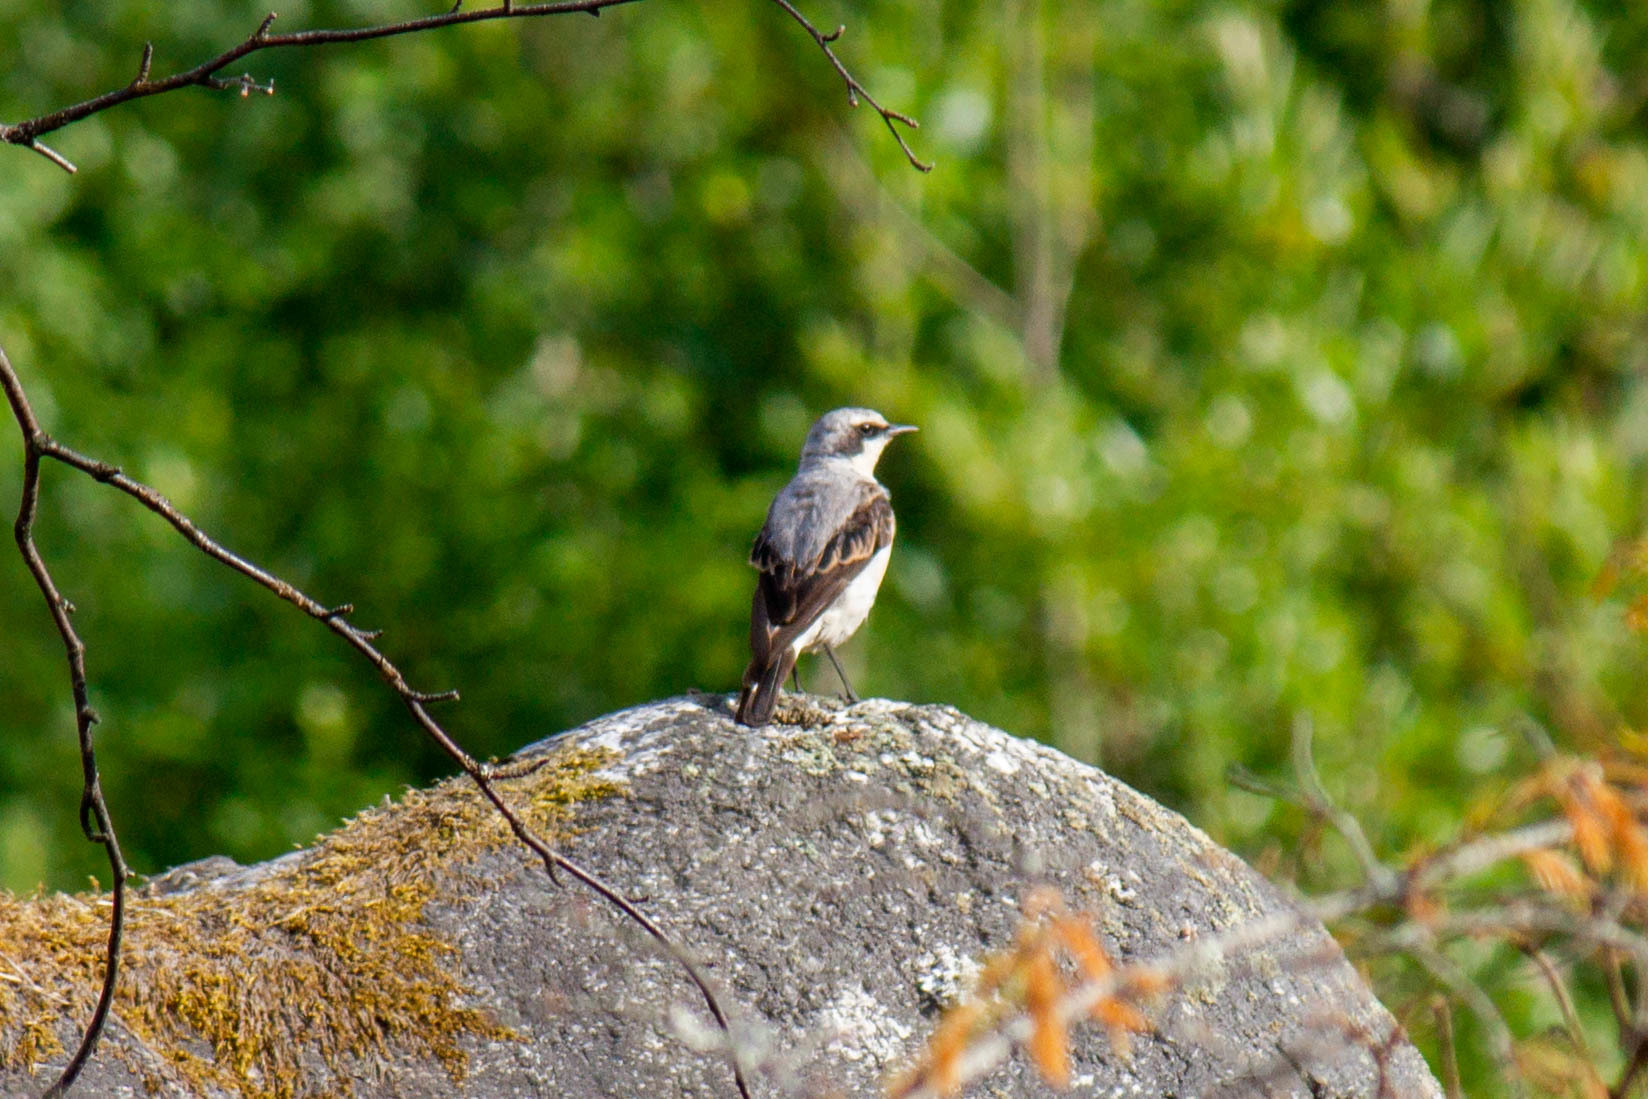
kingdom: Animalia
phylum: Chordata
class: Aves
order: Passeriformes
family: Muscicapidae
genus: Oenanthe
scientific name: Oenanthe oenanthe
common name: Northern wheatear
